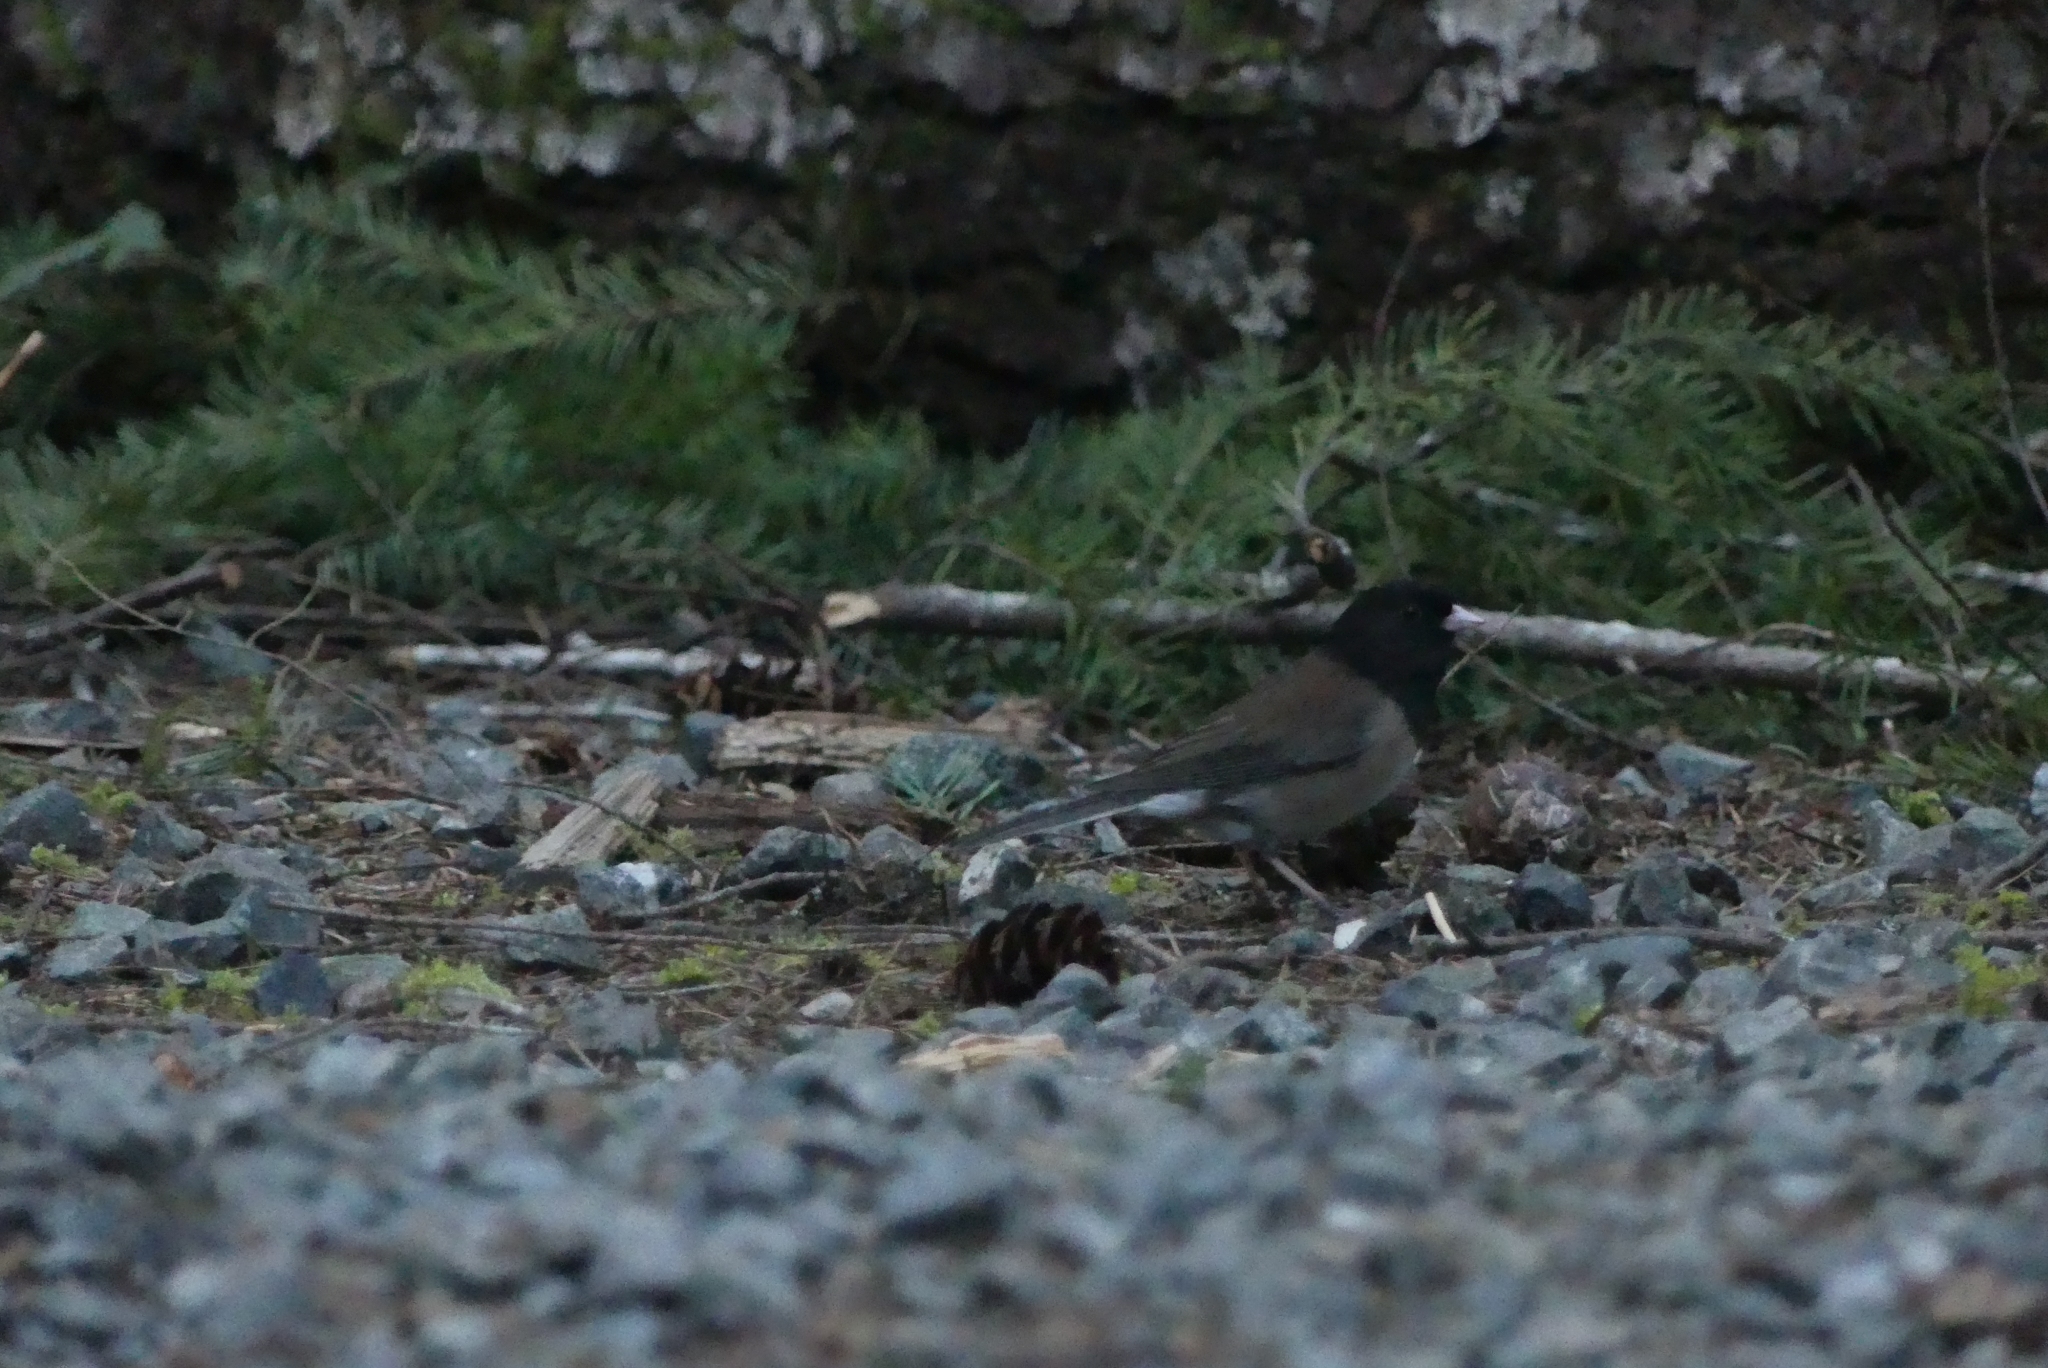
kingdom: Animalia
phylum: Chordata
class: Aves
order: Passeriformes
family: Passerellidae
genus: Junco
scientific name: Junco hyemalis
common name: Dark-eyed junco
